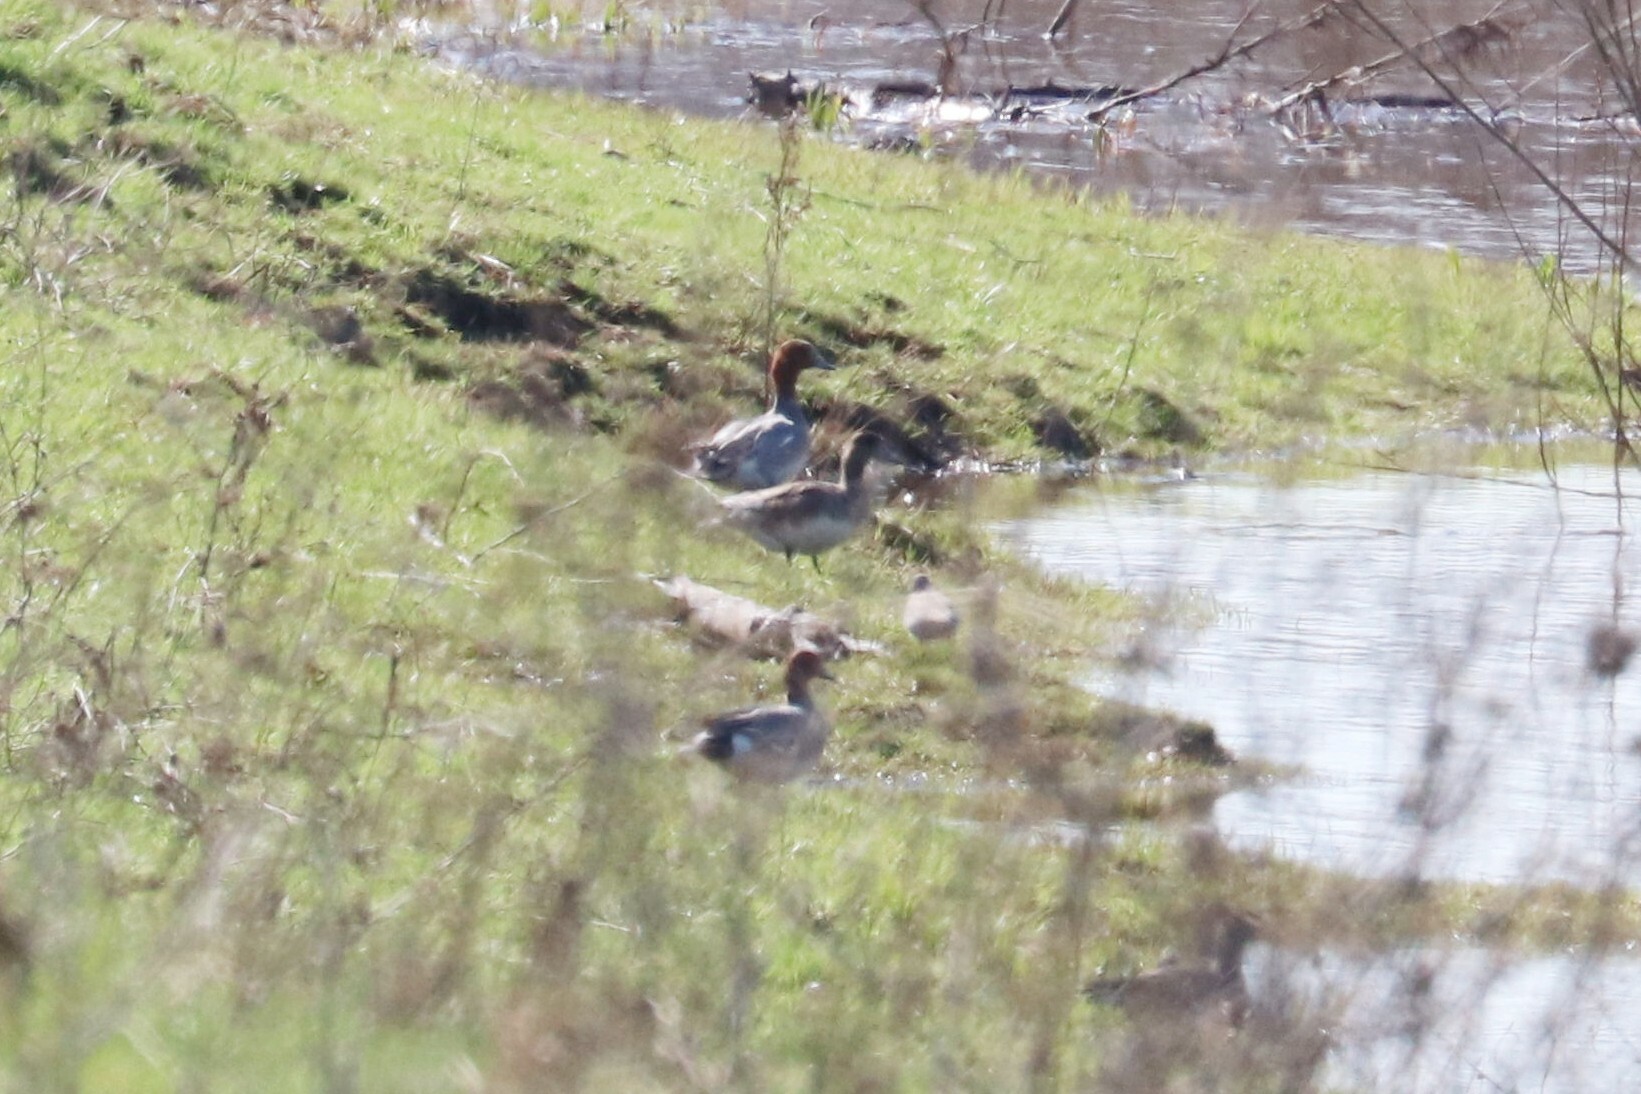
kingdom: Animalia
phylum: Chordata
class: Aves
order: Anseriformes
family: Anatidae
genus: Mareca
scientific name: Mareca penelope
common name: Eurasian wigeon
